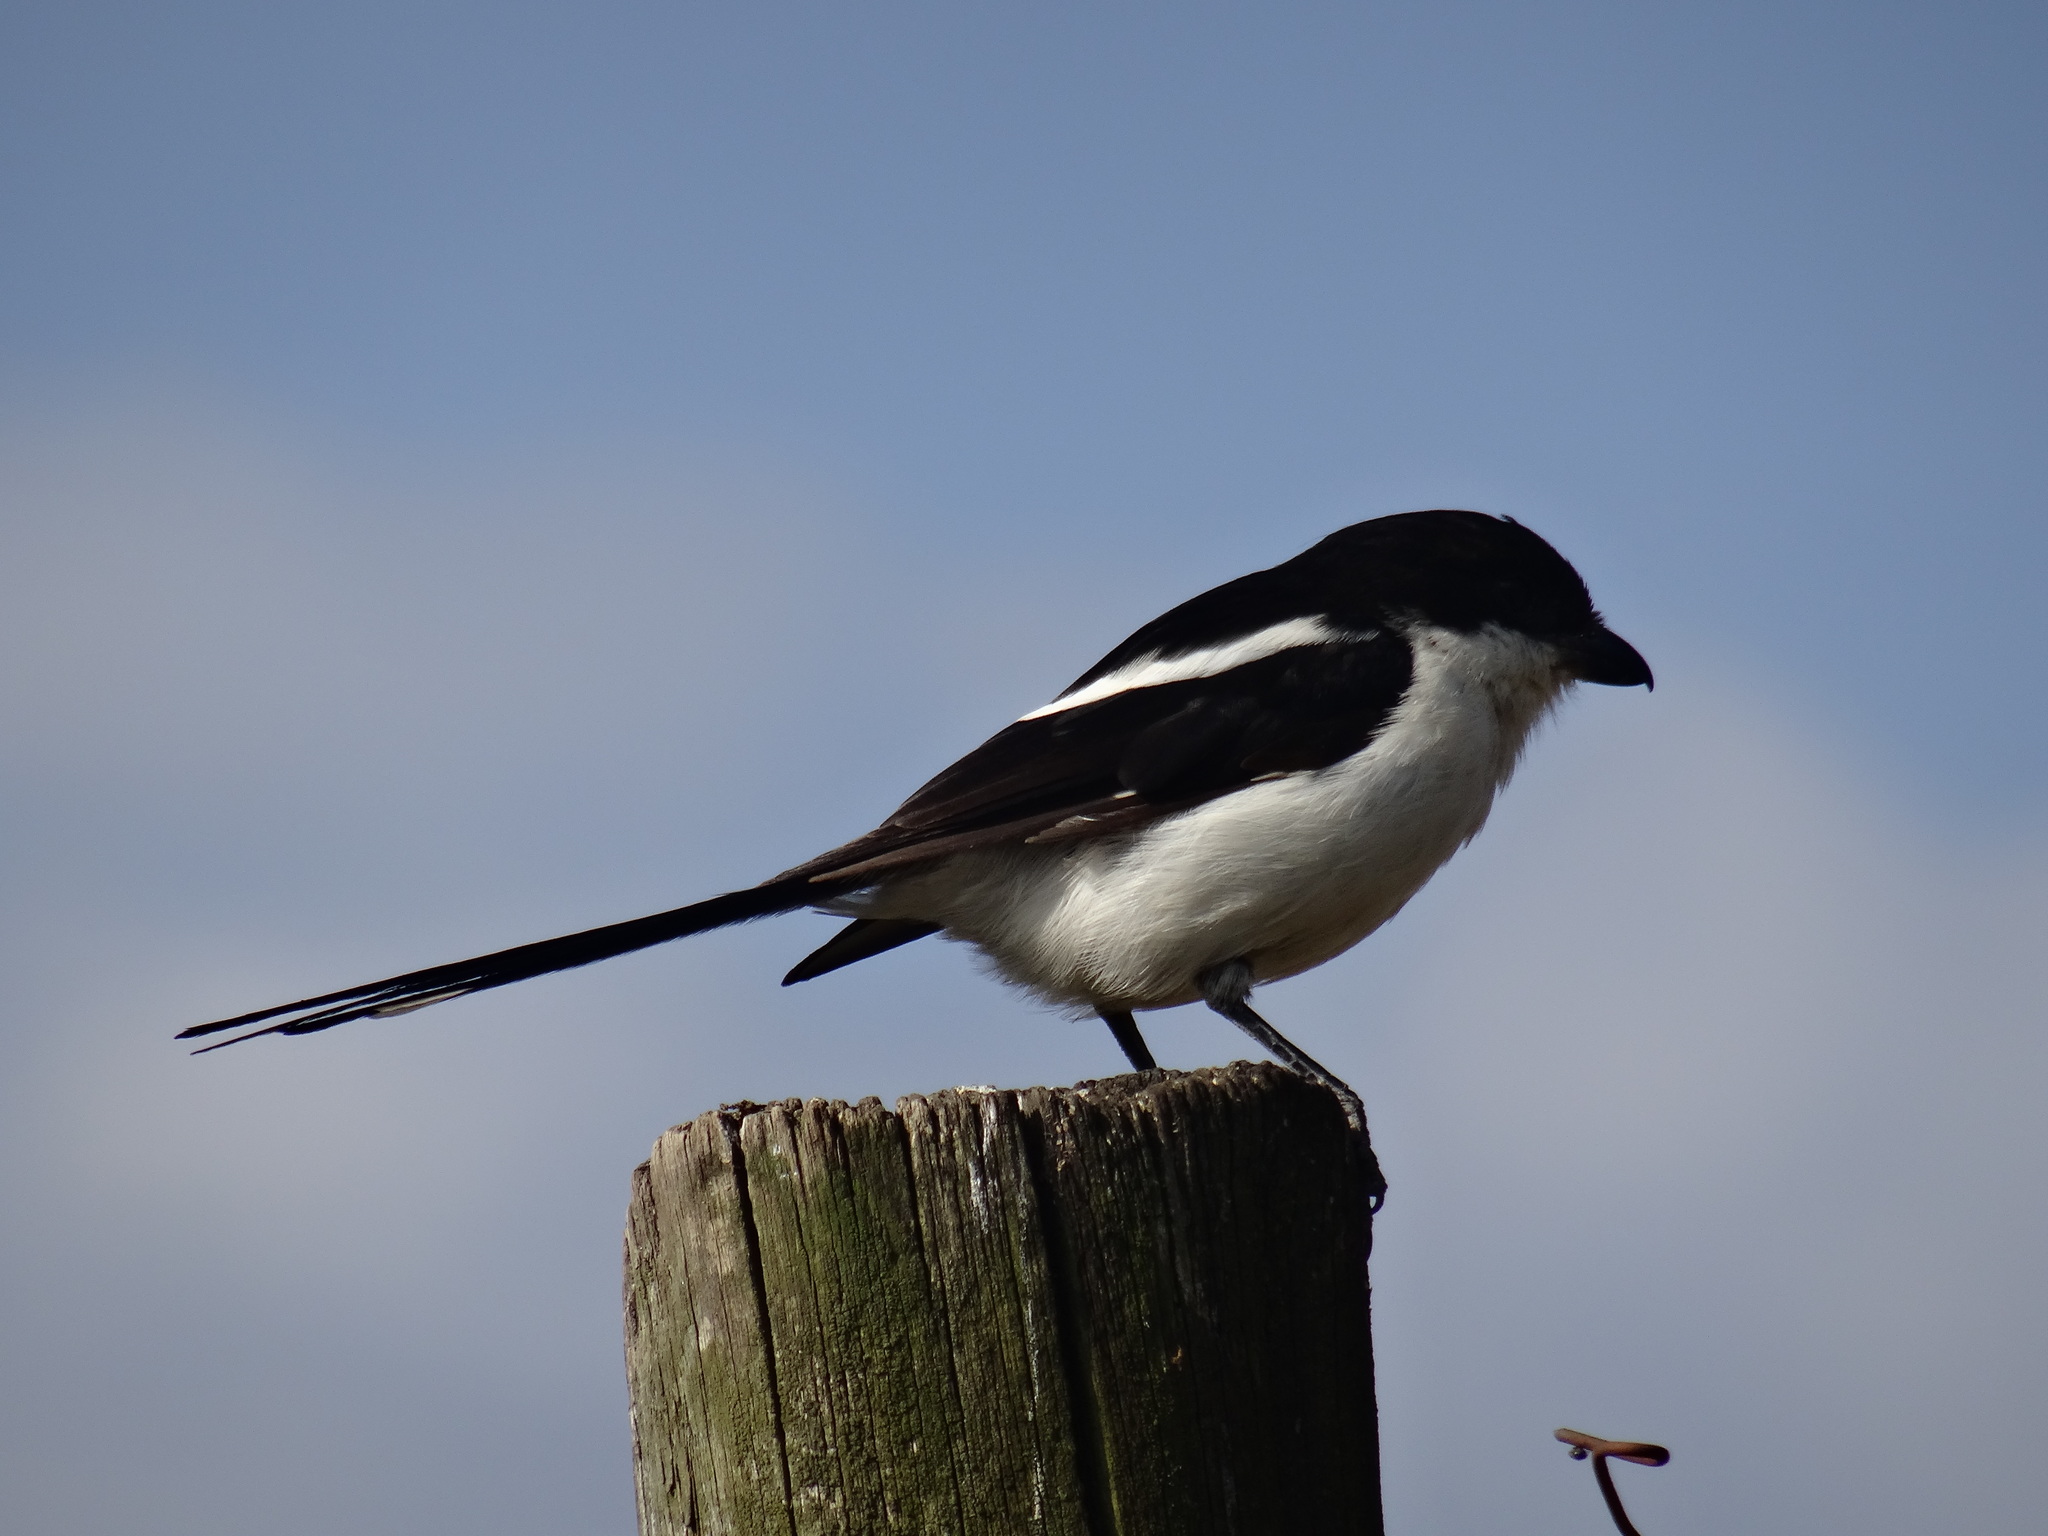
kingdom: Animalia
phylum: Chordata
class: Aves
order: Passeriformes
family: Laniidae
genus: Lanius
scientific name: Lanius humeralis
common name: Northern fiscal
